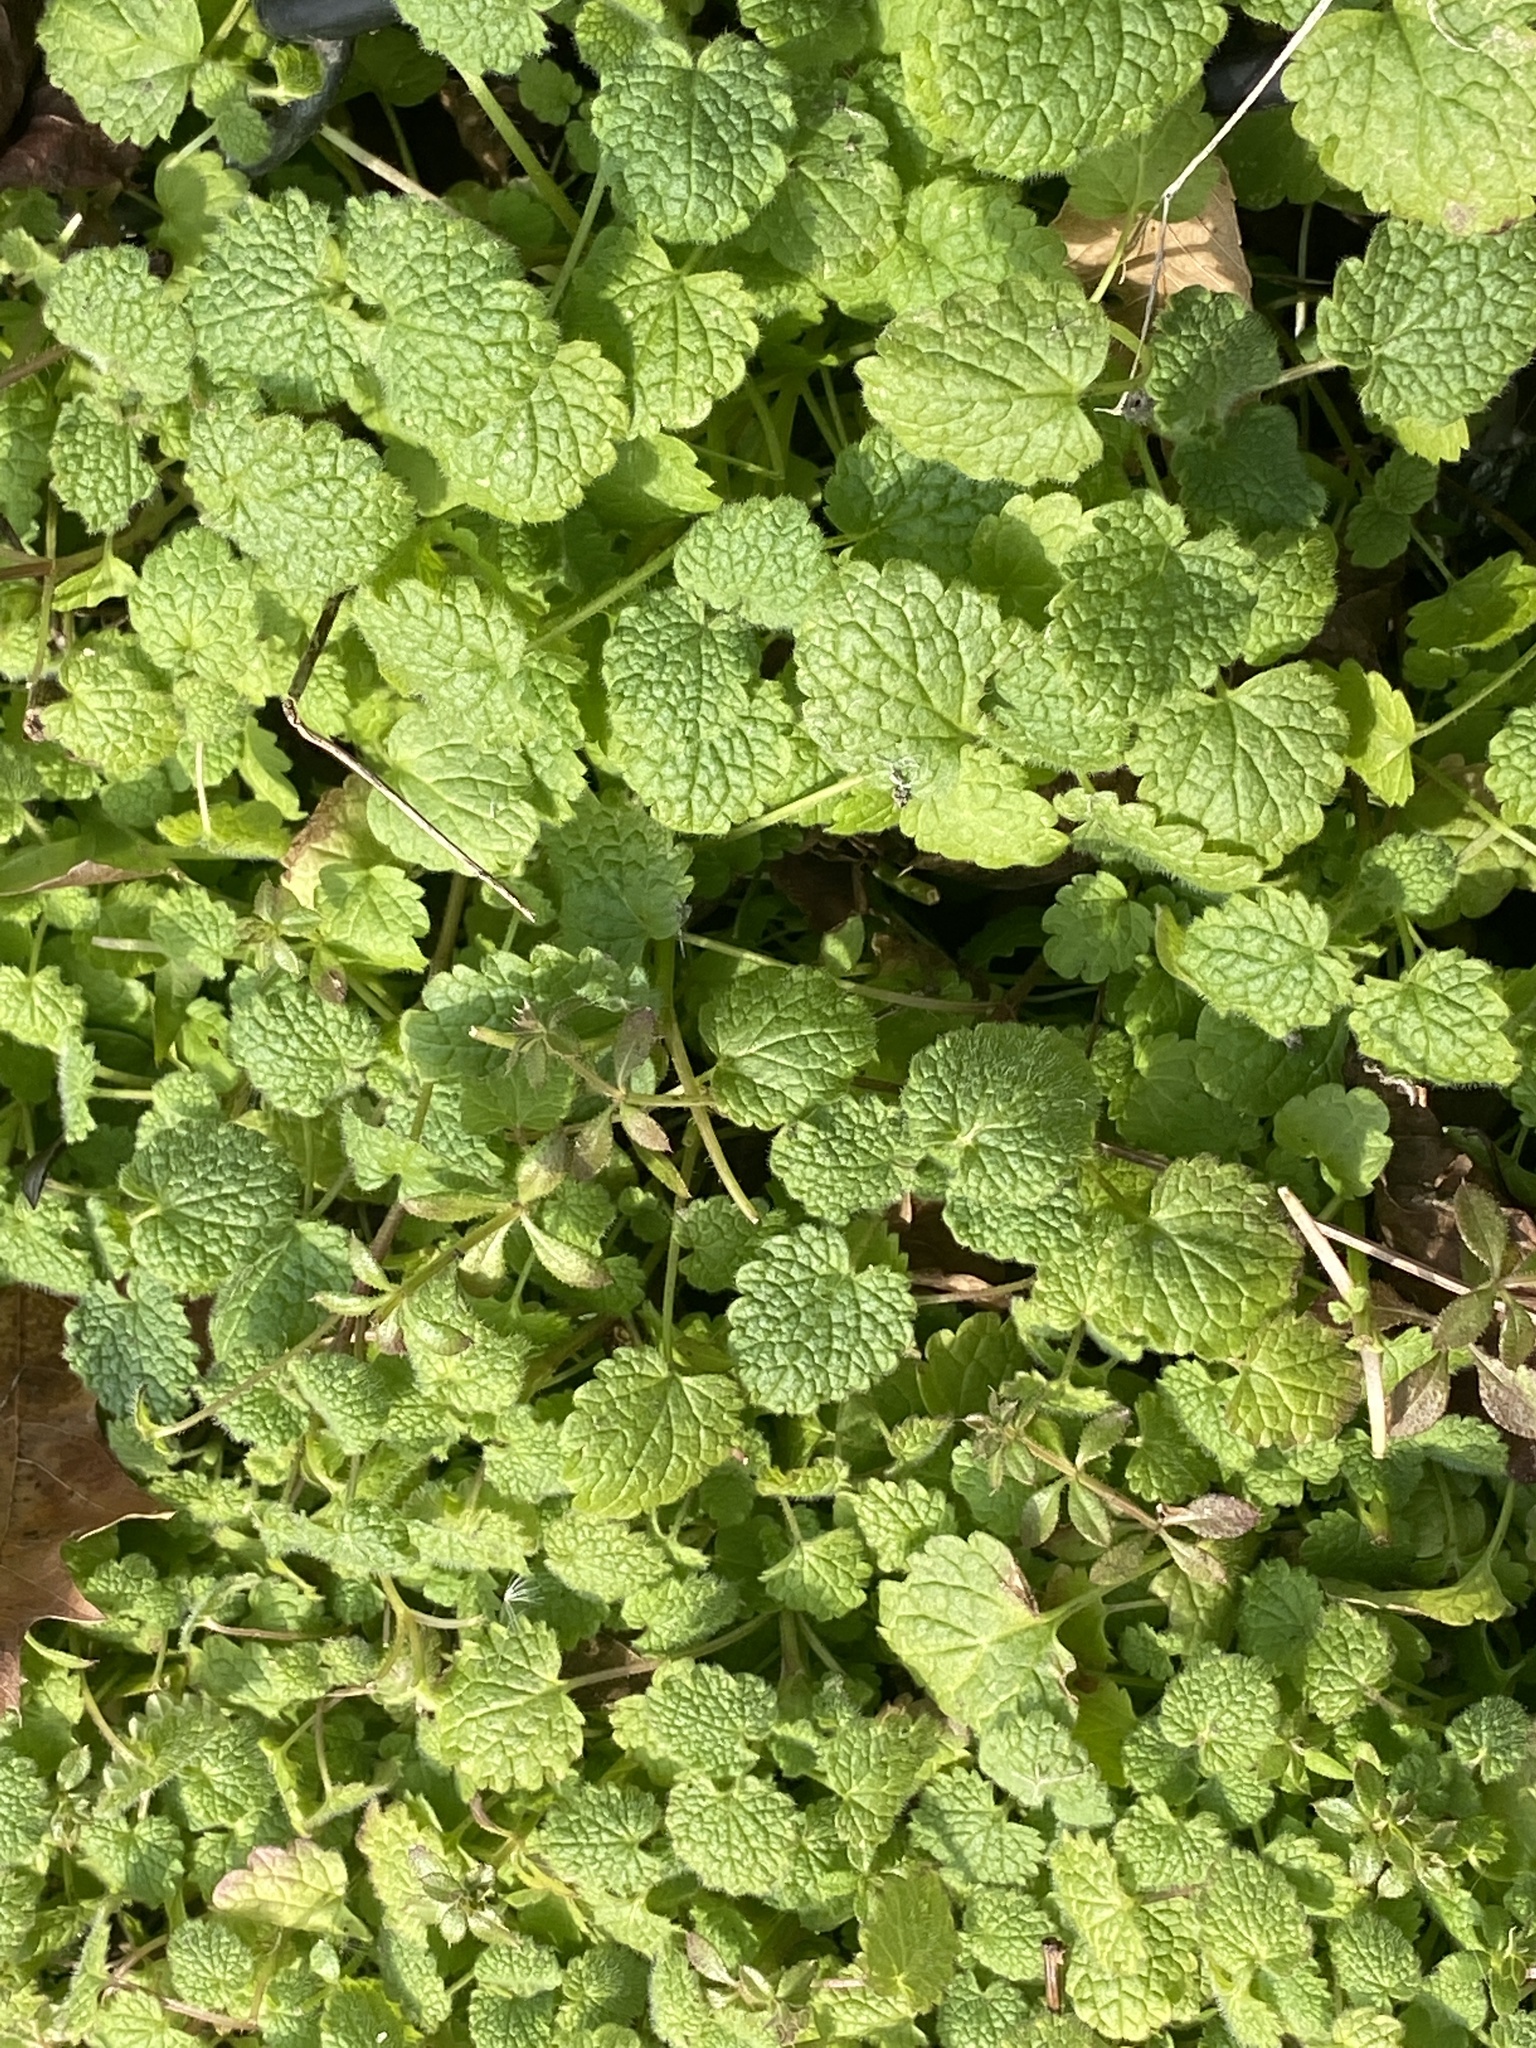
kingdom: Plantae
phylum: Tracheophyta
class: Magnoliopsida
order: Lamiales
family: Lamiaceae
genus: Lamium
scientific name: Lamium purpureum
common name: Red dead-nettle
